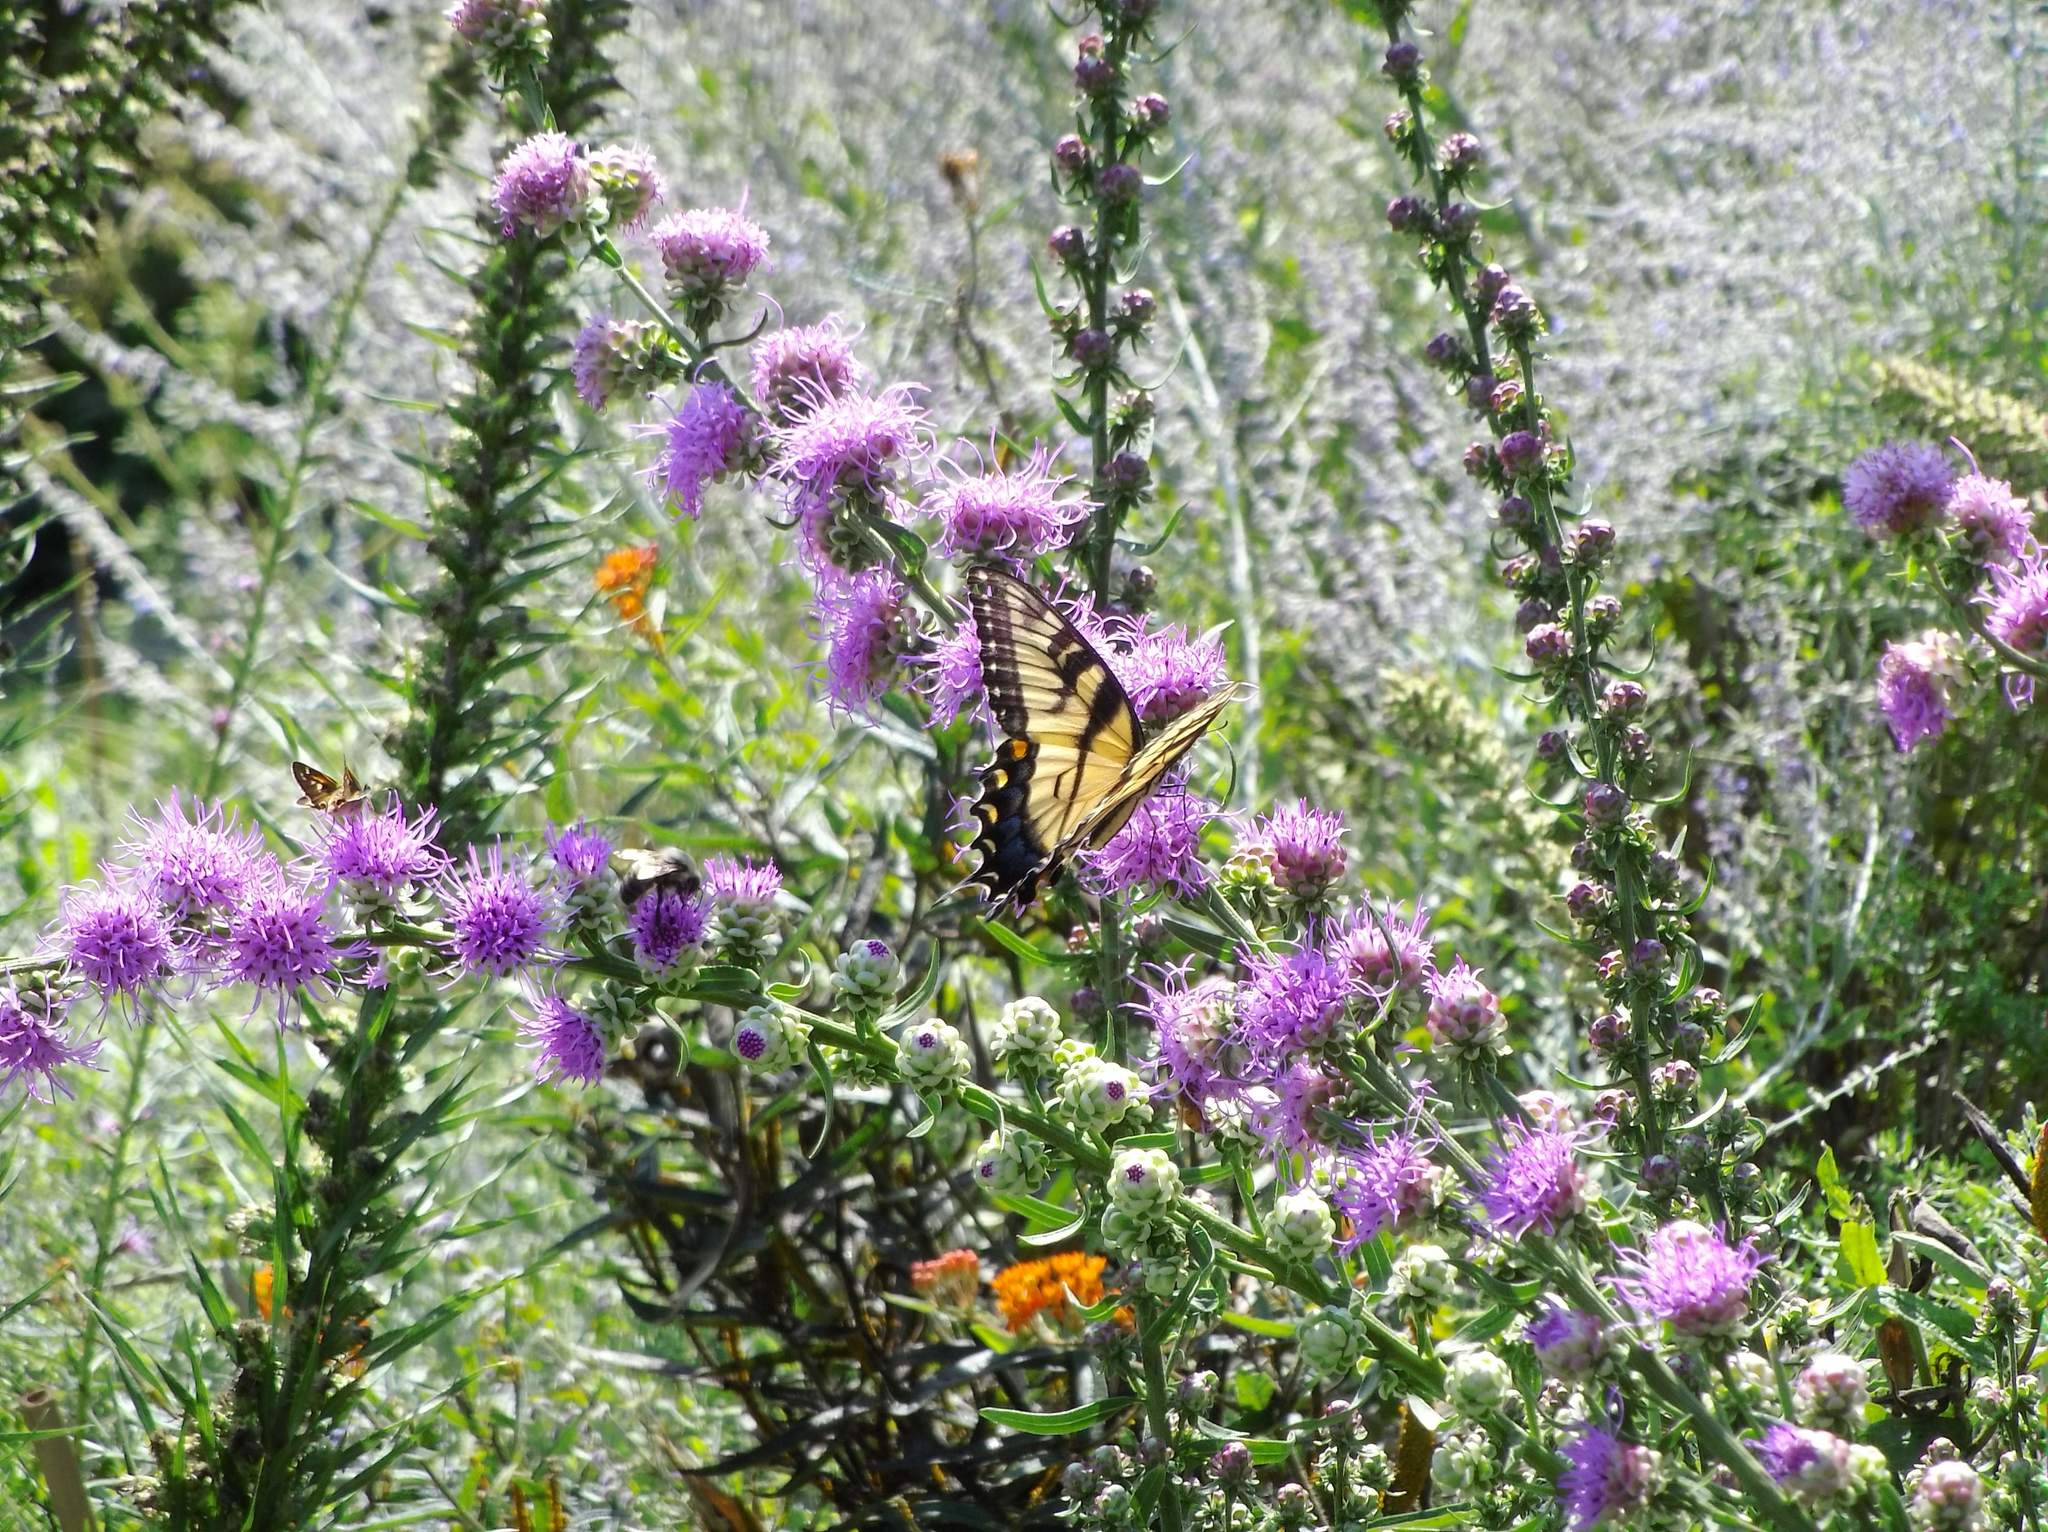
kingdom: Animalia
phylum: Arthropoda
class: Insecta
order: Lepidoptera
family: Papilionidae
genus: Papilio
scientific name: Papilio glaucus
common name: Tiger swallowtail
